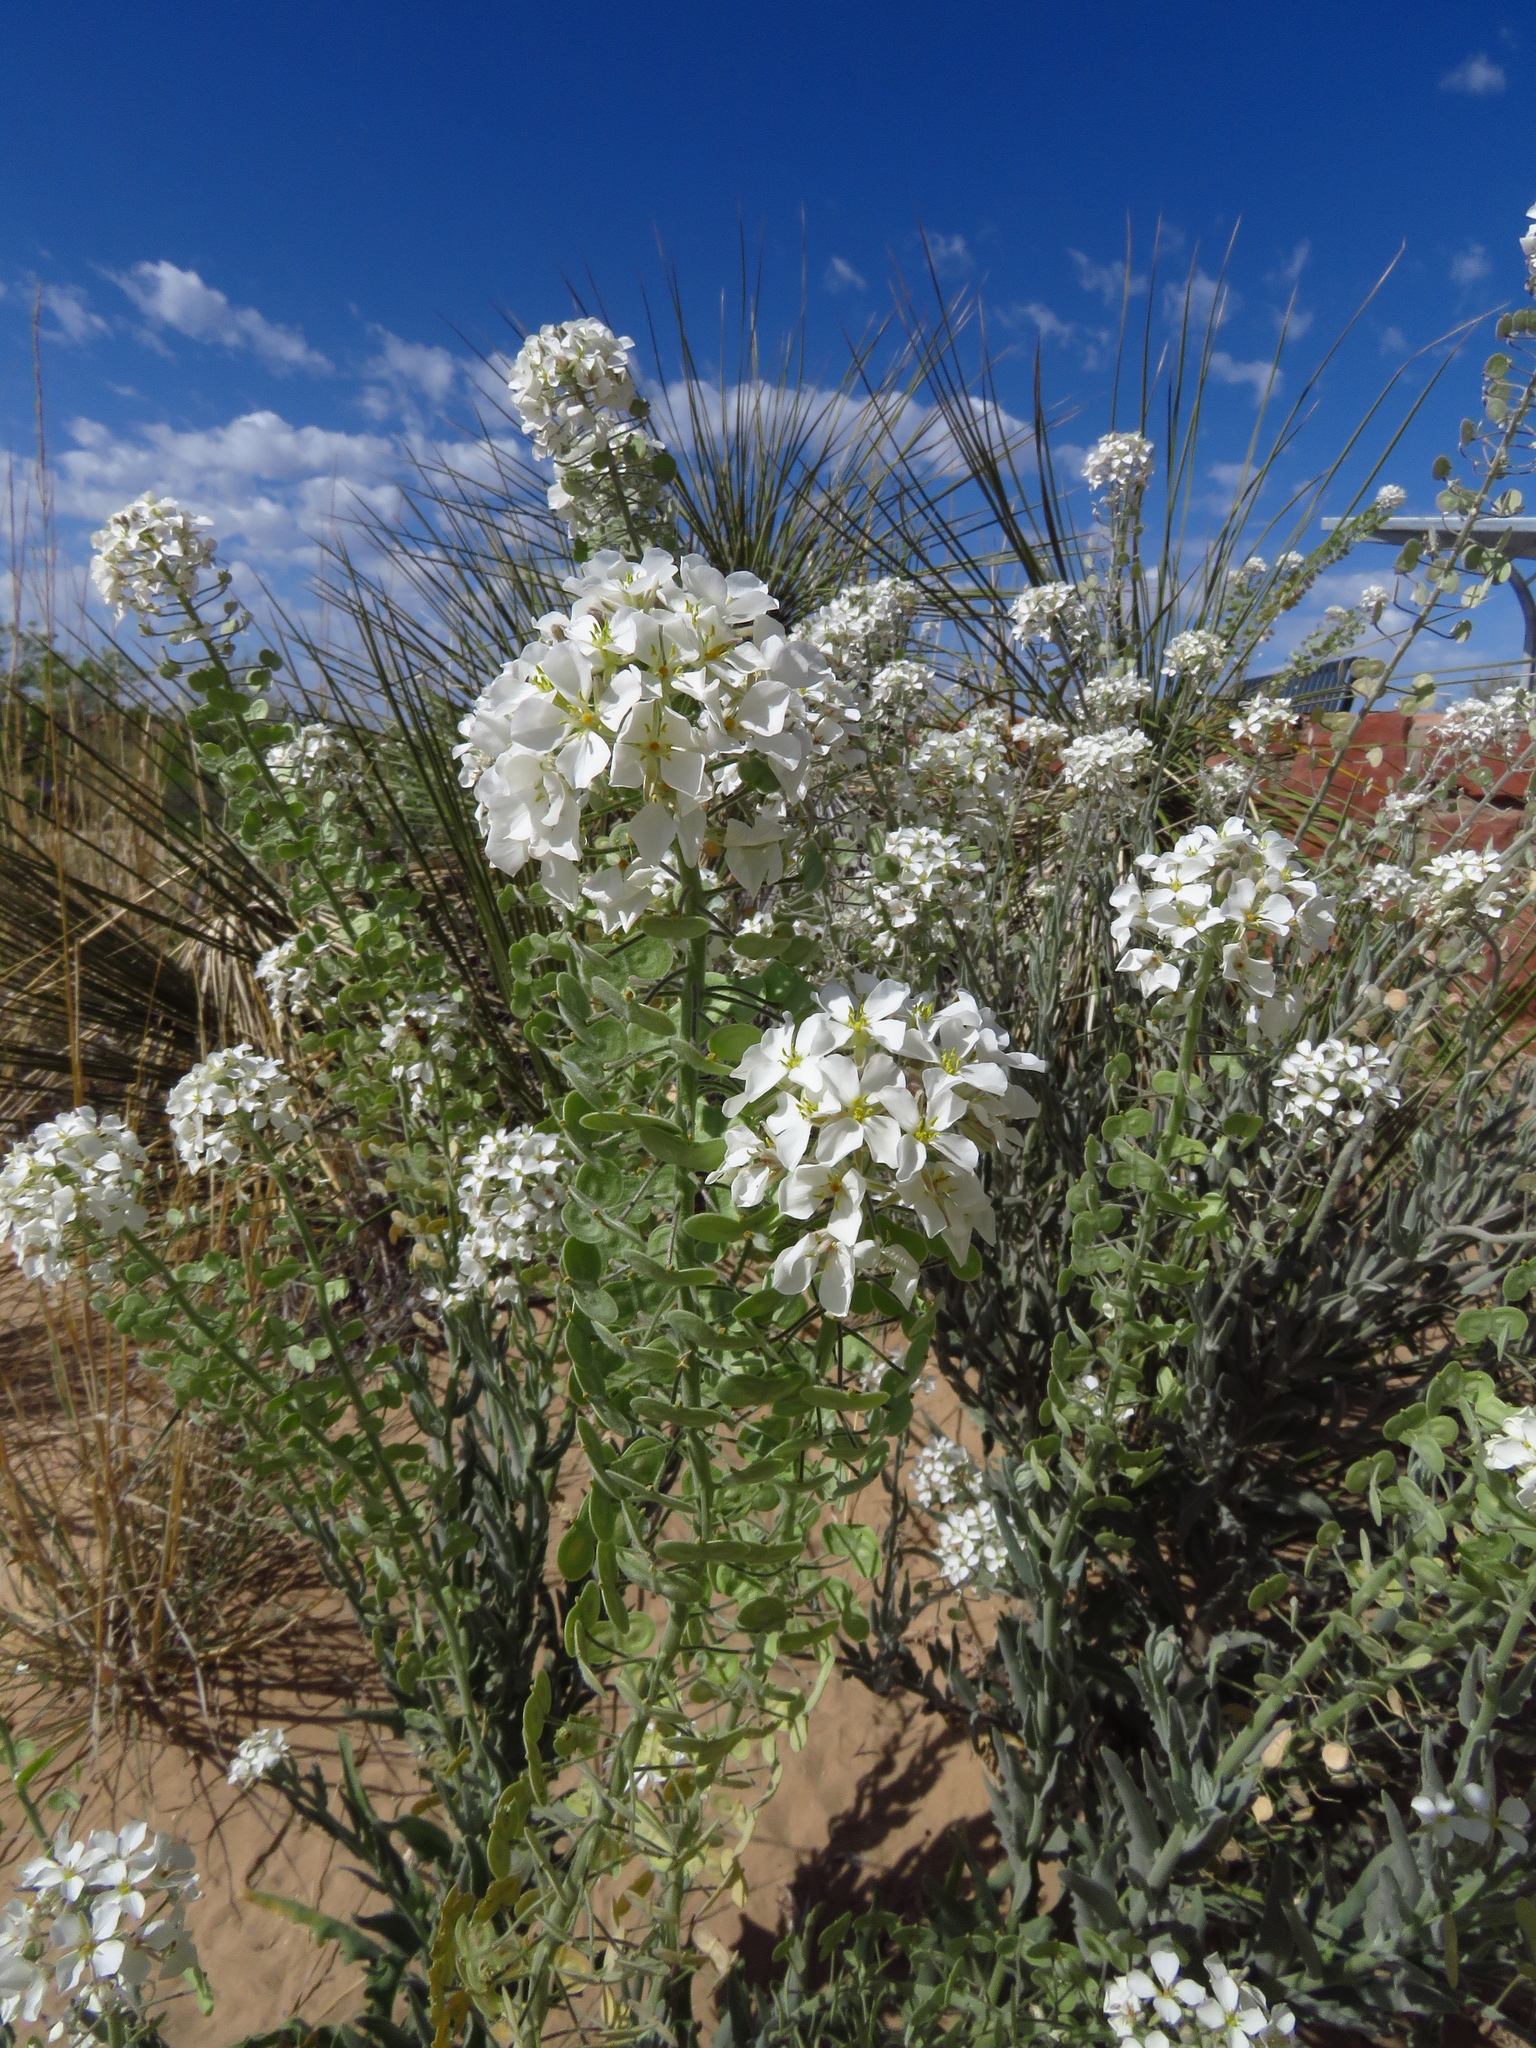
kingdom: Plantae
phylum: Tracheophyta
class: Magnoliopsida
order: Brassicales
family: Brassicaceae
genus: Dimorphocarpa
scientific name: Dimorphocarpa wislizenii
